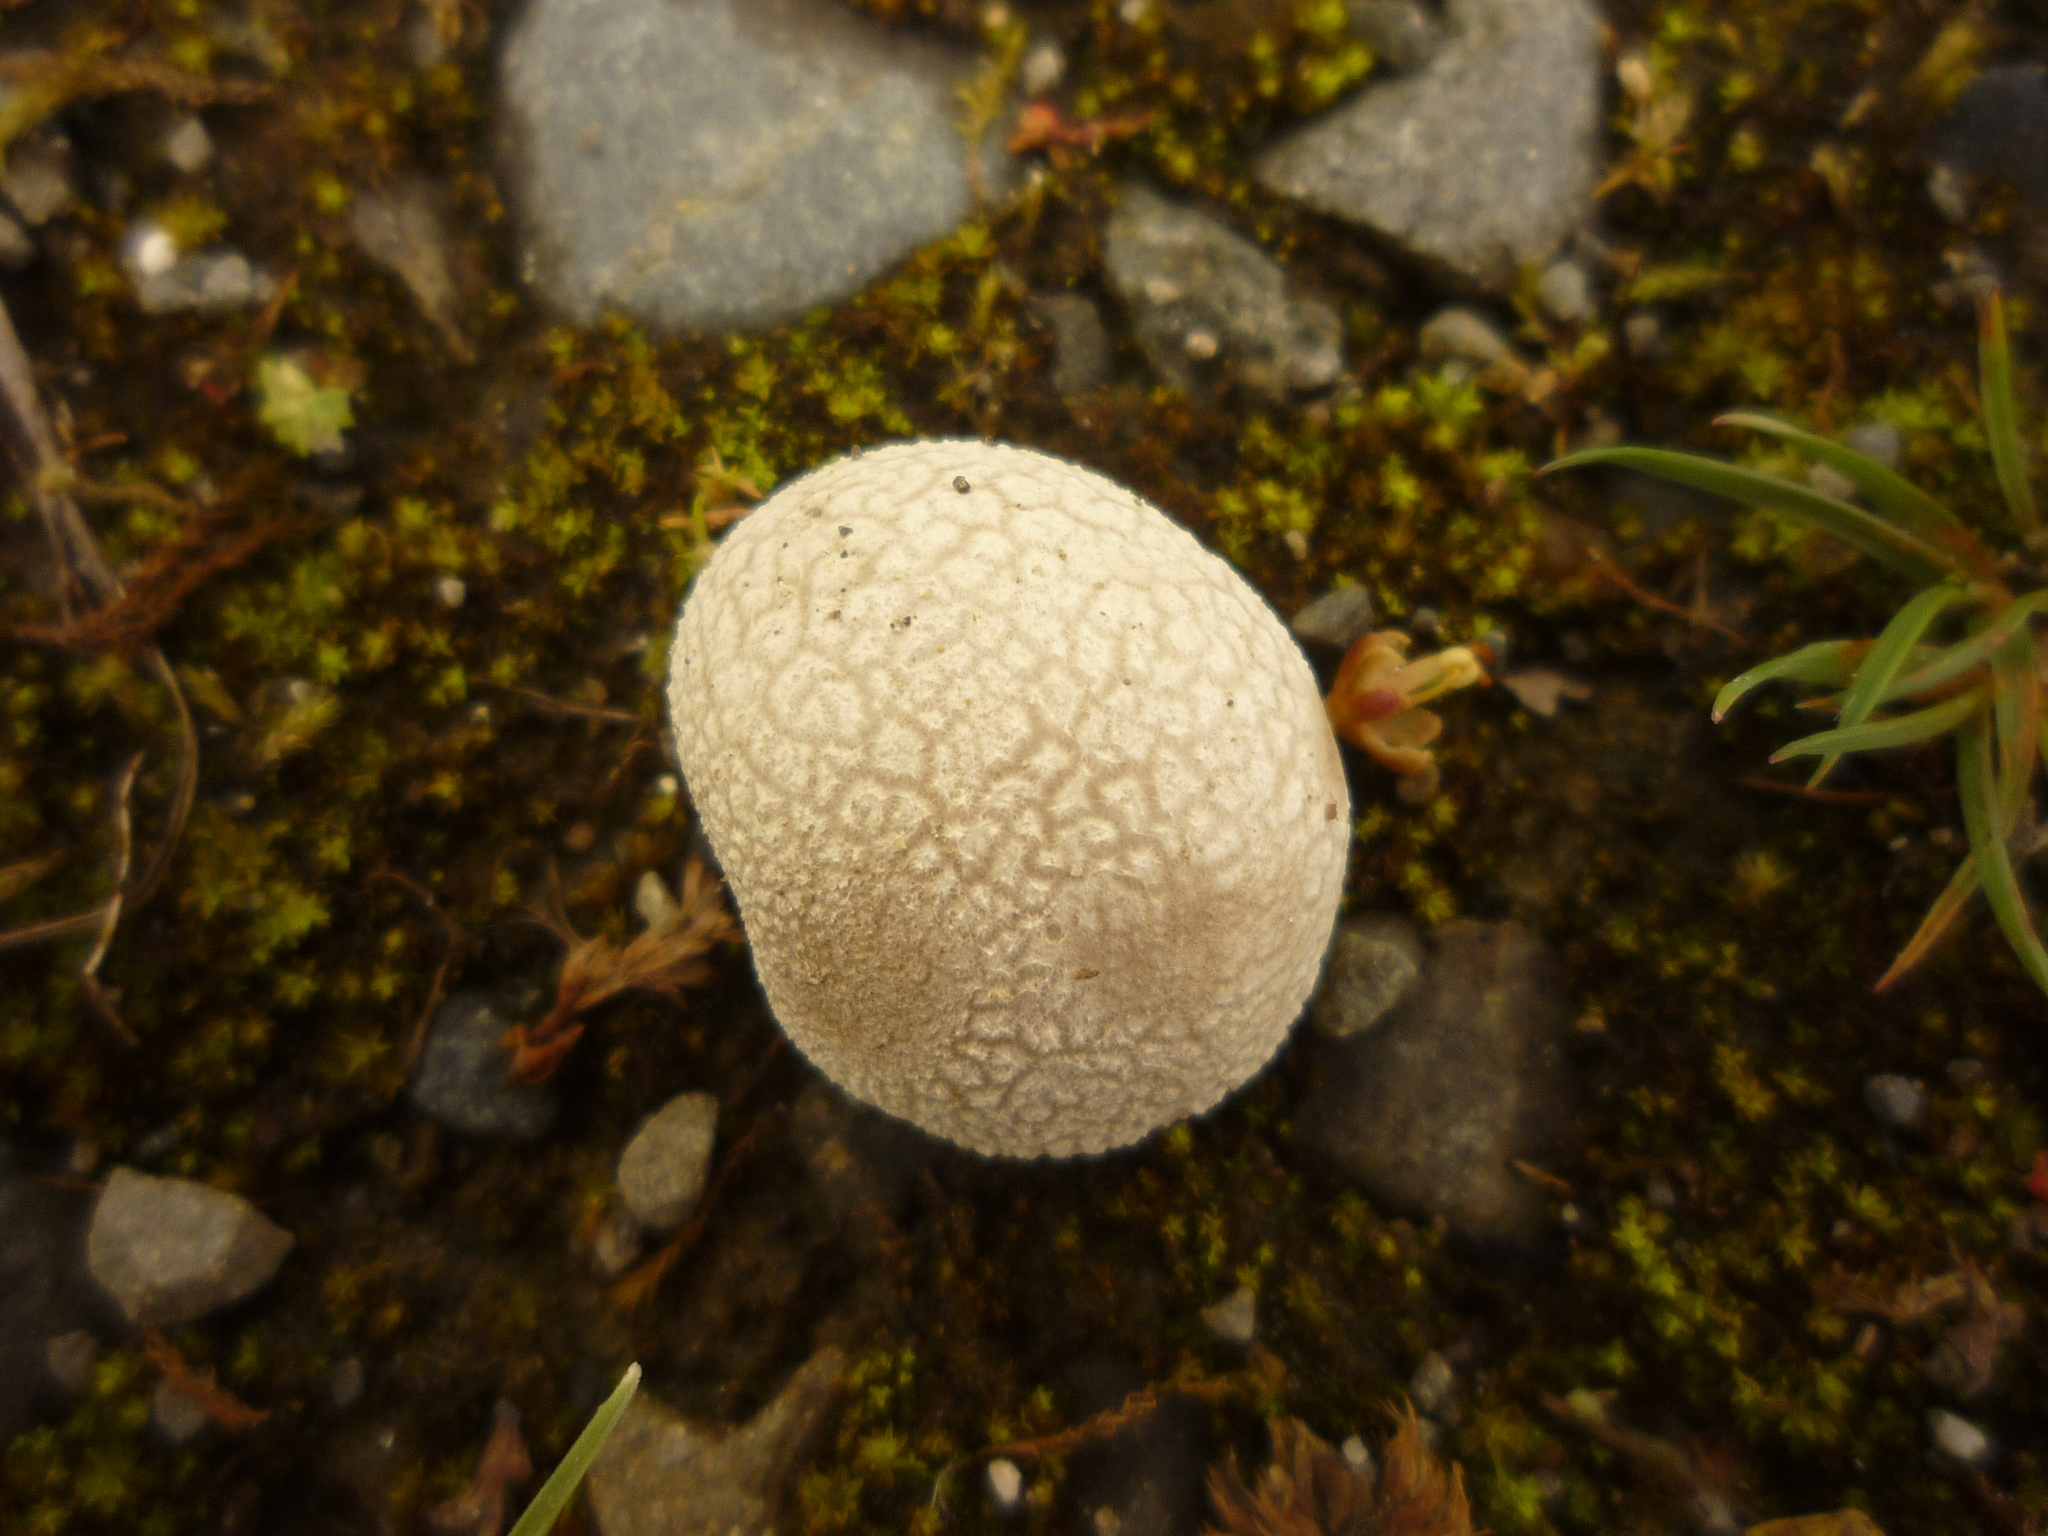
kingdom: Fungi
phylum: Basidiomycota
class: Agaricomycetes
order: Agaricales
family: Lycoperdaceae
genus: Bovista
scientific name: Bovista plumbea
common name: Grey puffball
